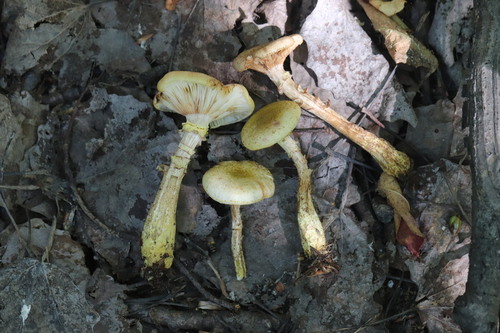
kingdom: Fungi
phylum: Basidiomycota
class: Agaricomycetes
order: Agaricales
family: Physalacriaceae
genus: Armillaria
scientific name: Armillaria gallica
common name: Bulbous honey fungus
